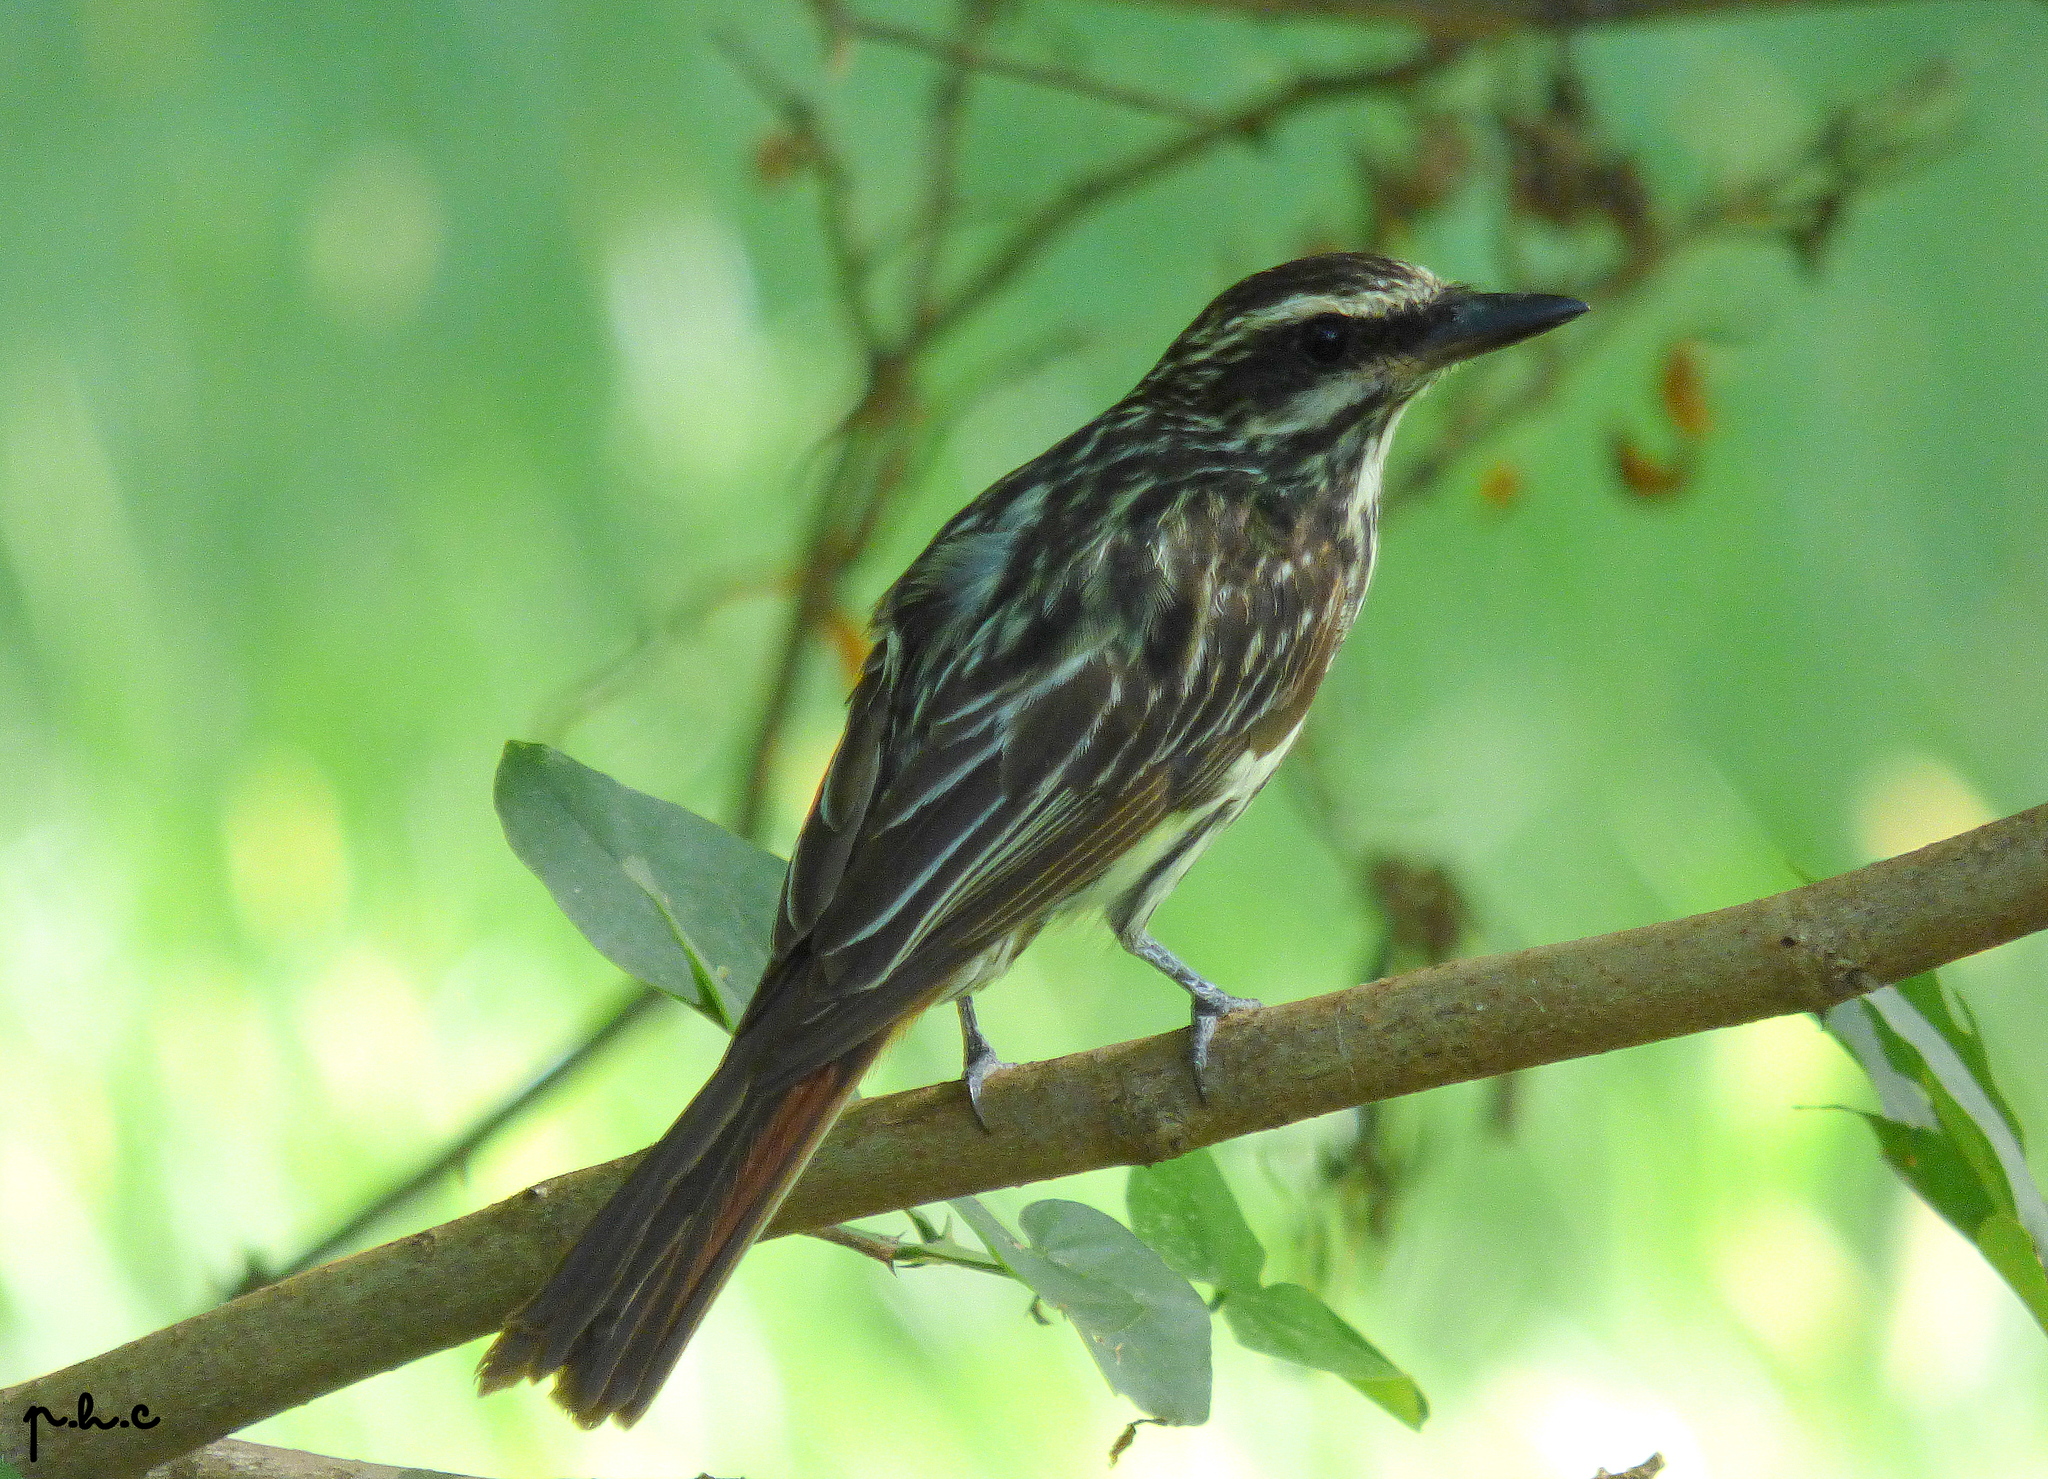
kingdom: Animalia
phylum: Chordata
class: Aves
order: Passeriformes
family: Tyrannidae
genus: Myiodynastes
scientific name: Myiodynastes maculatus
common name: Streaked flycatcher
